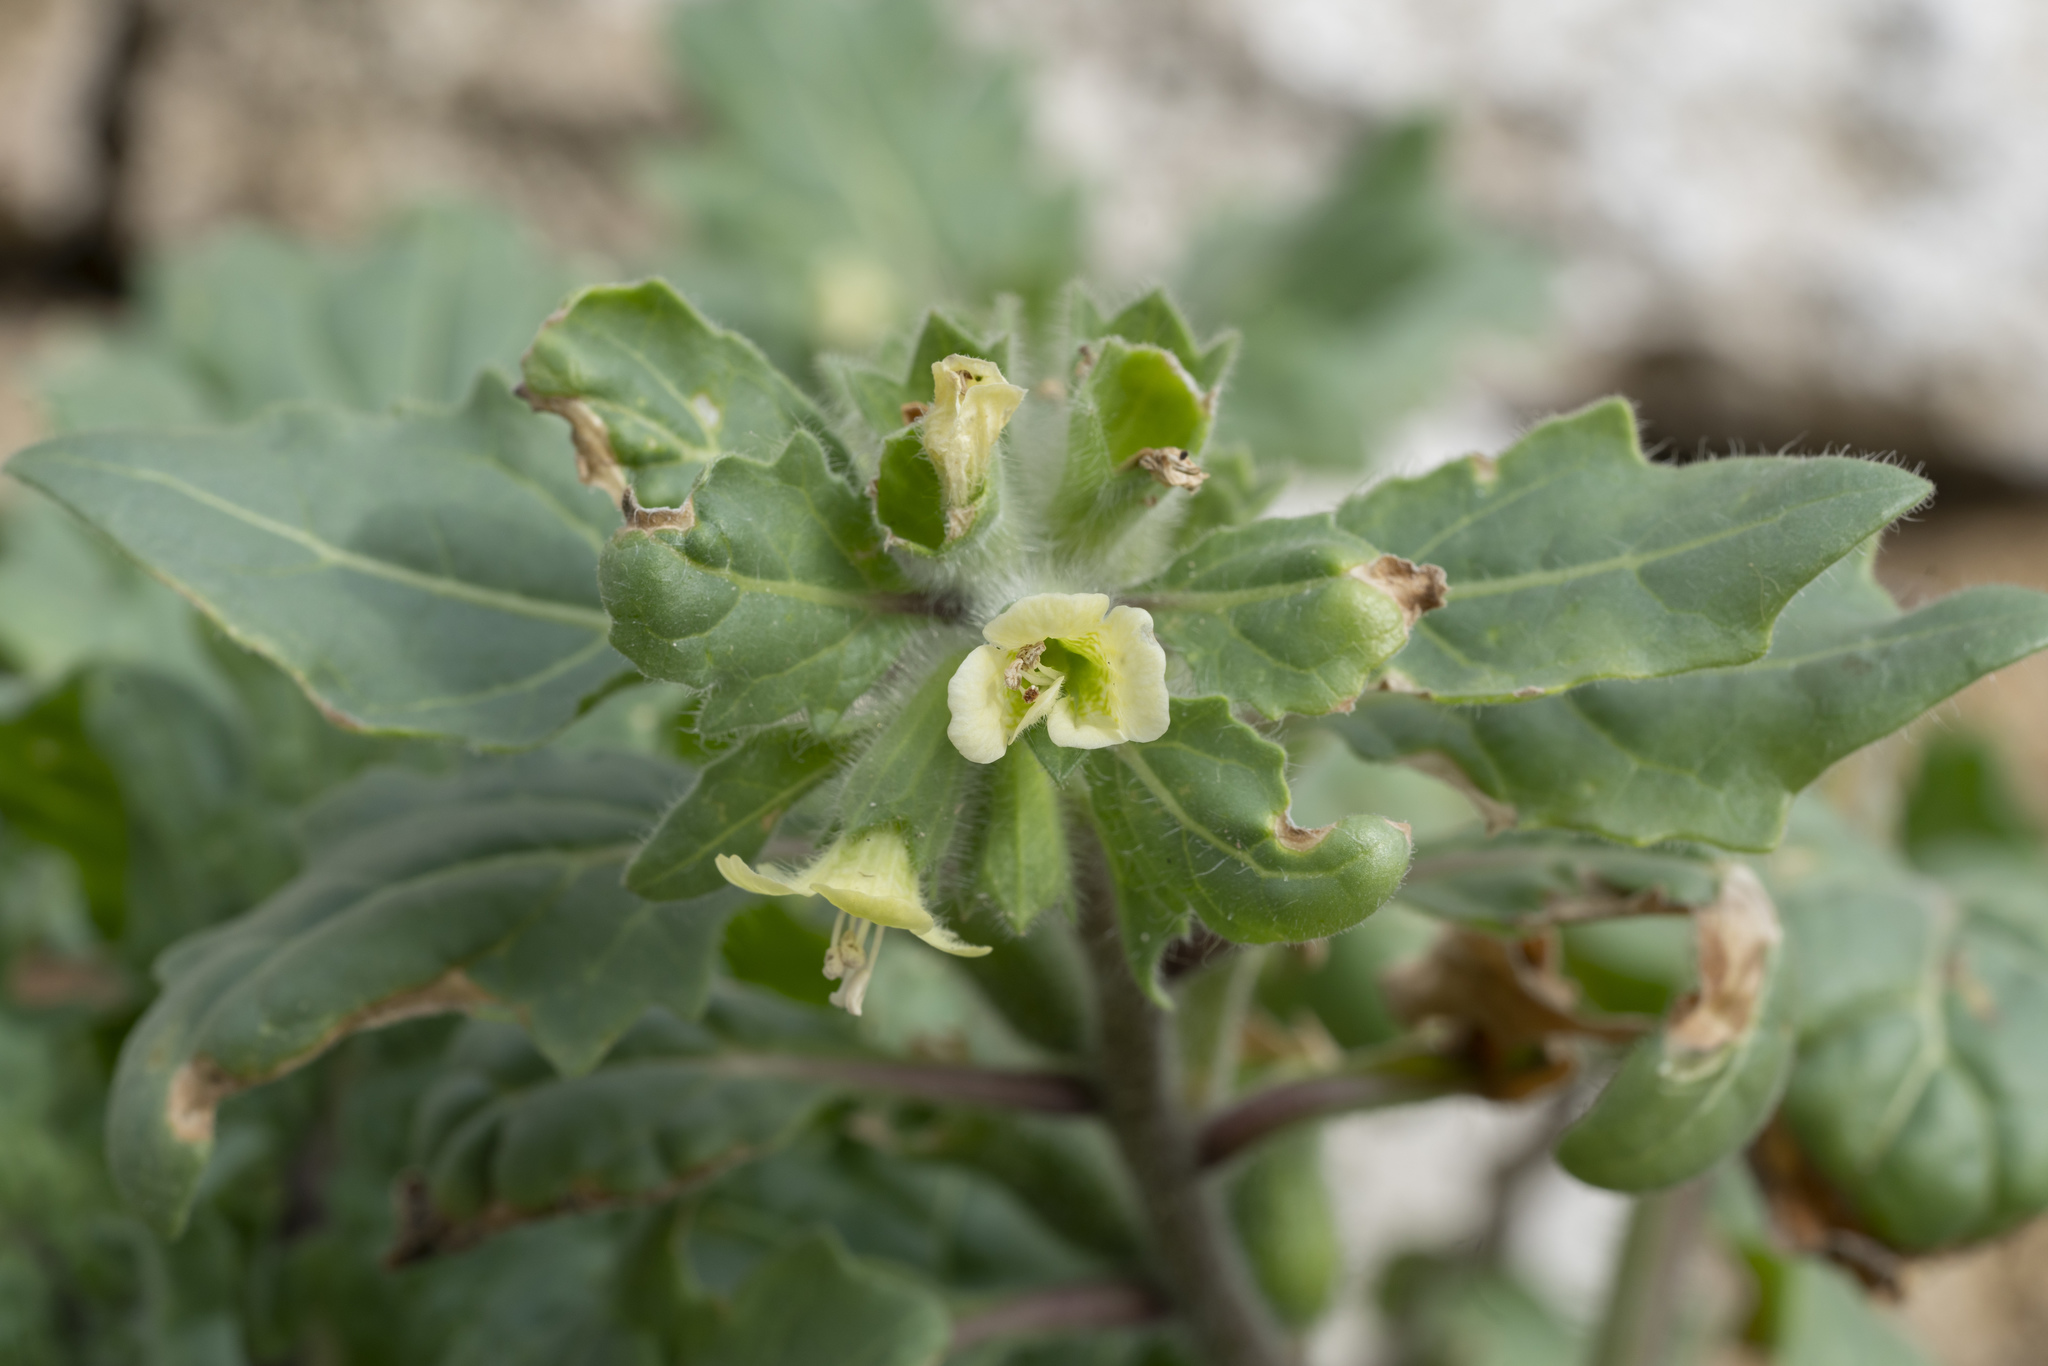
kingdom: Plantae
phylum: Tracheophyta
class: Magnoliopsida
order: Solanales
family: Solanaceae
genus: Hyoscyamus
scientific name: Hyoscyamus albus
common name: White henbane
